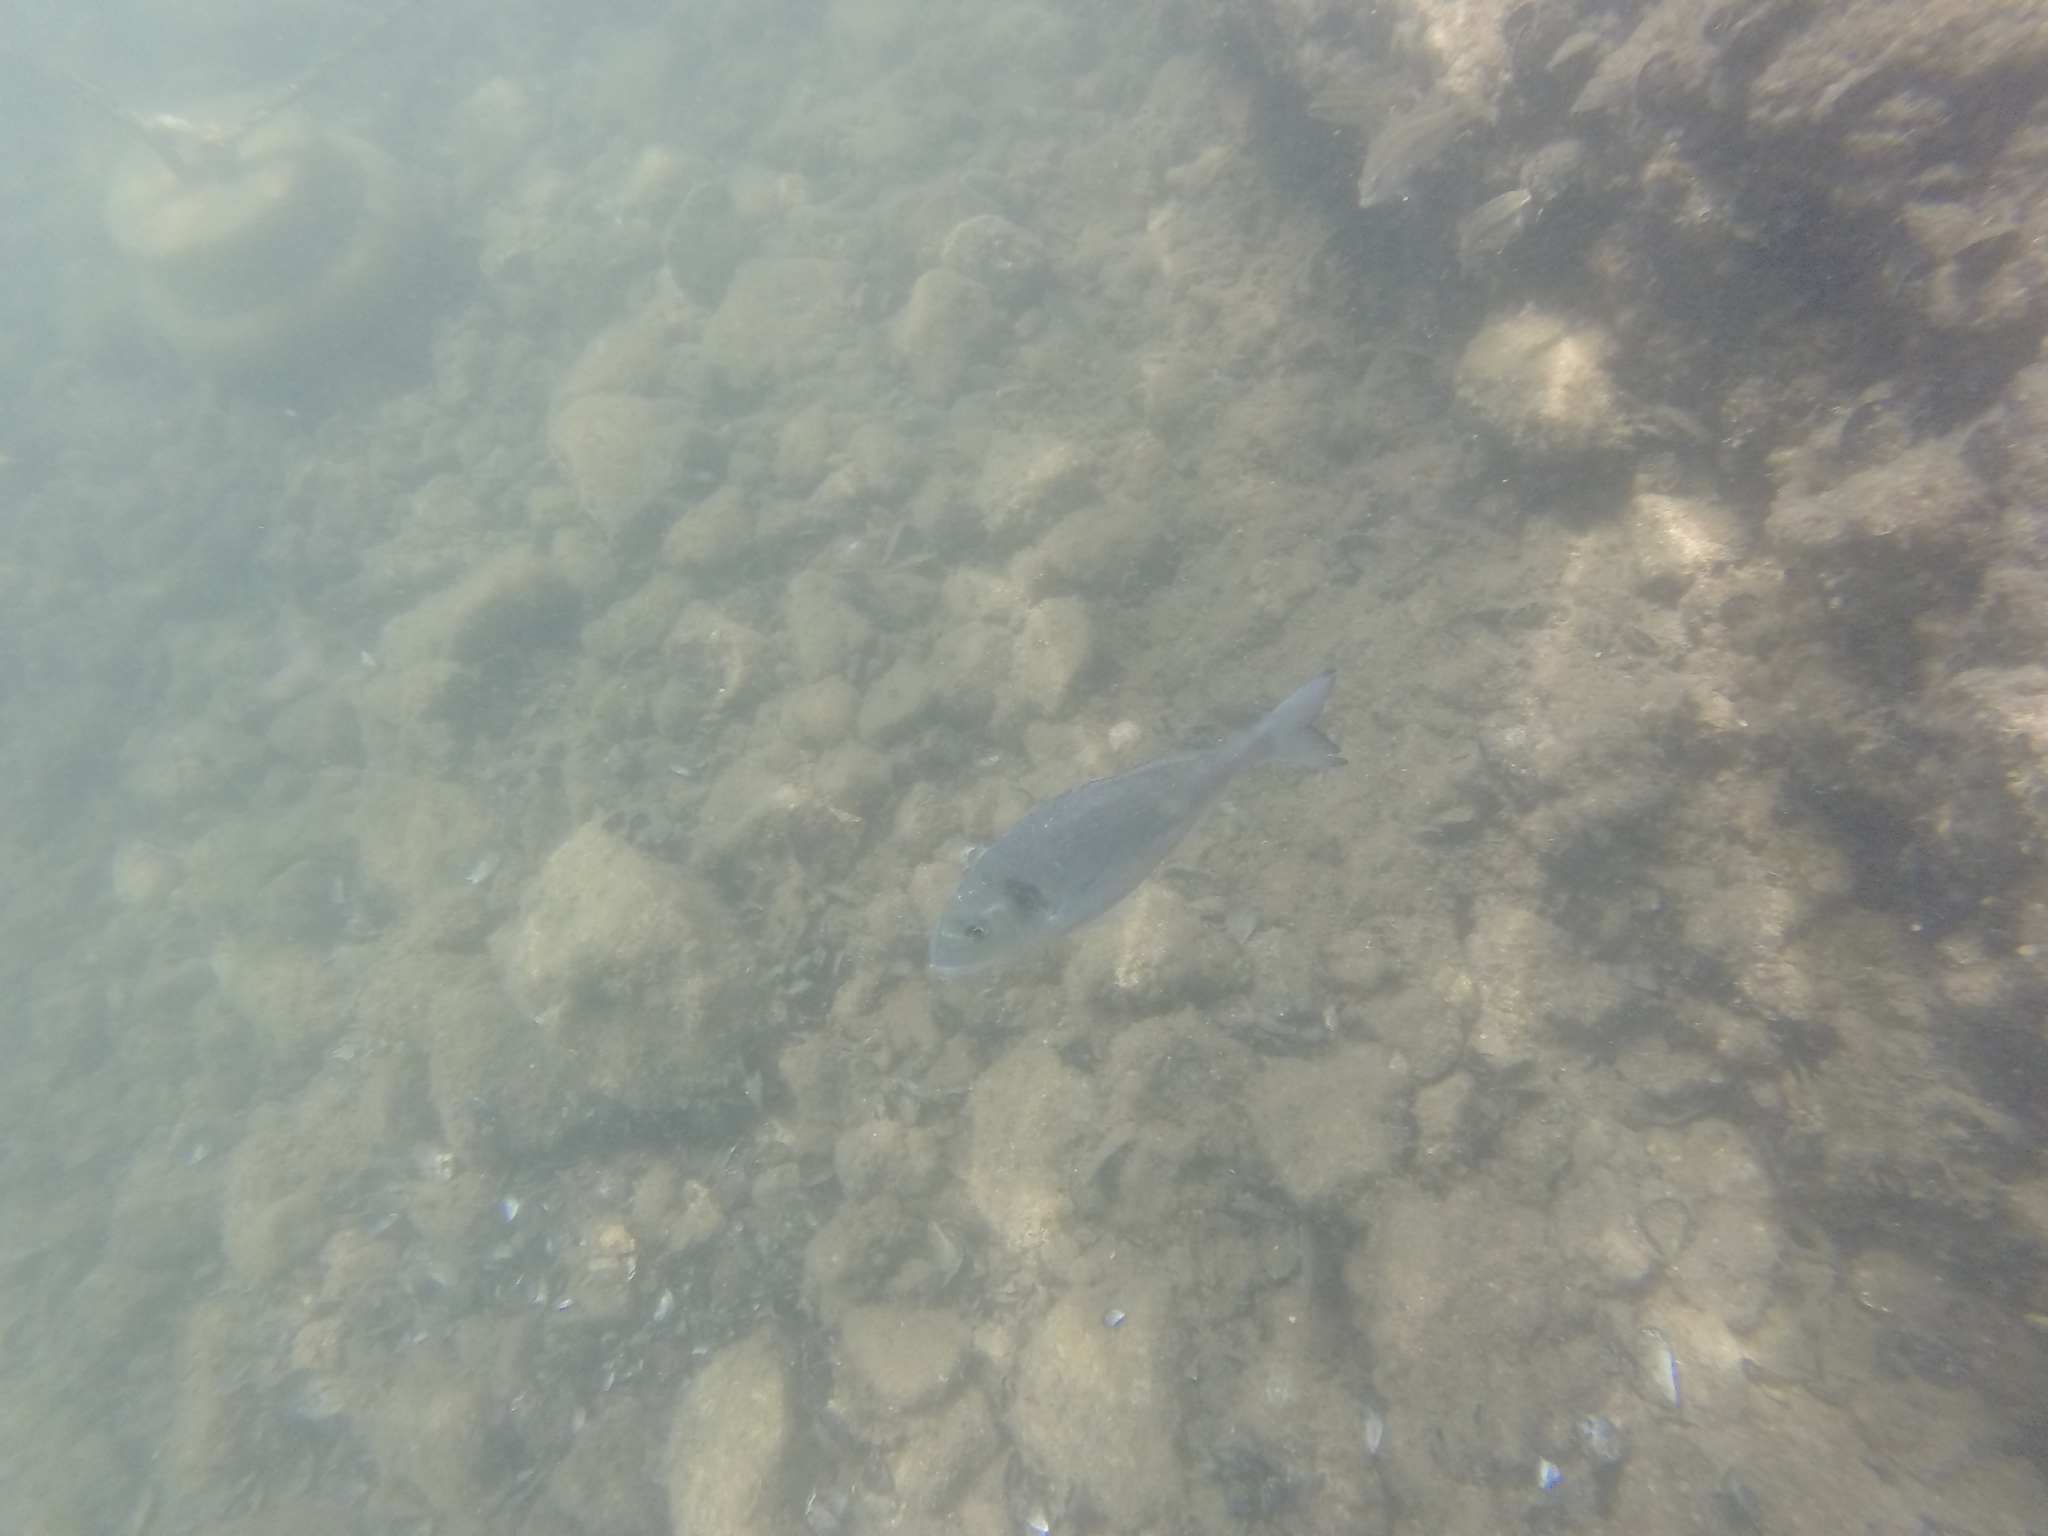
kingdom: Animalia
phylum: Chordata
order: Perciformes
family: Sparidae
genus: Sparus
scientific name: Sparus aurata
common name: Gilthead
